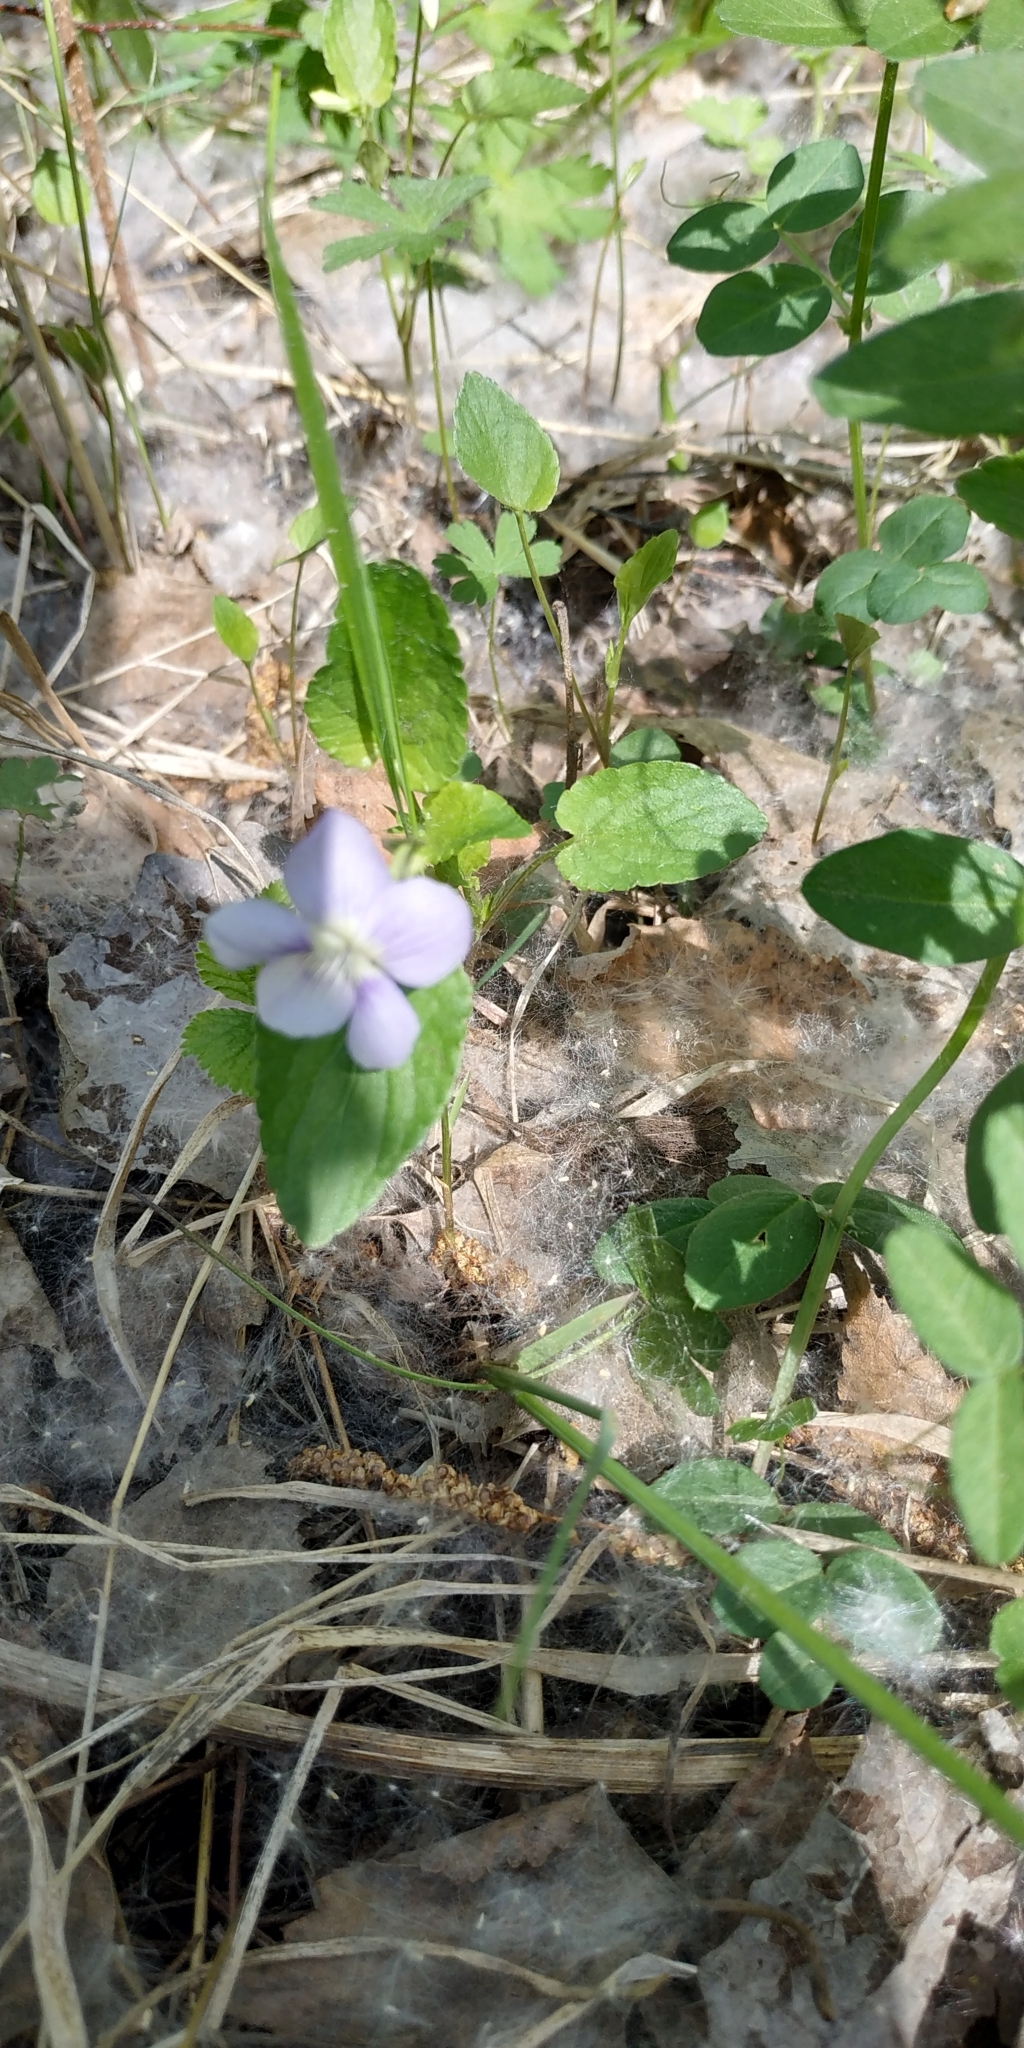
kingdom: Plantae
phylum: Tracheophyta
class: Magnoliopsida
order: Malpighiales
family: Violaceae
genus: Viola
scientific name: Viola
